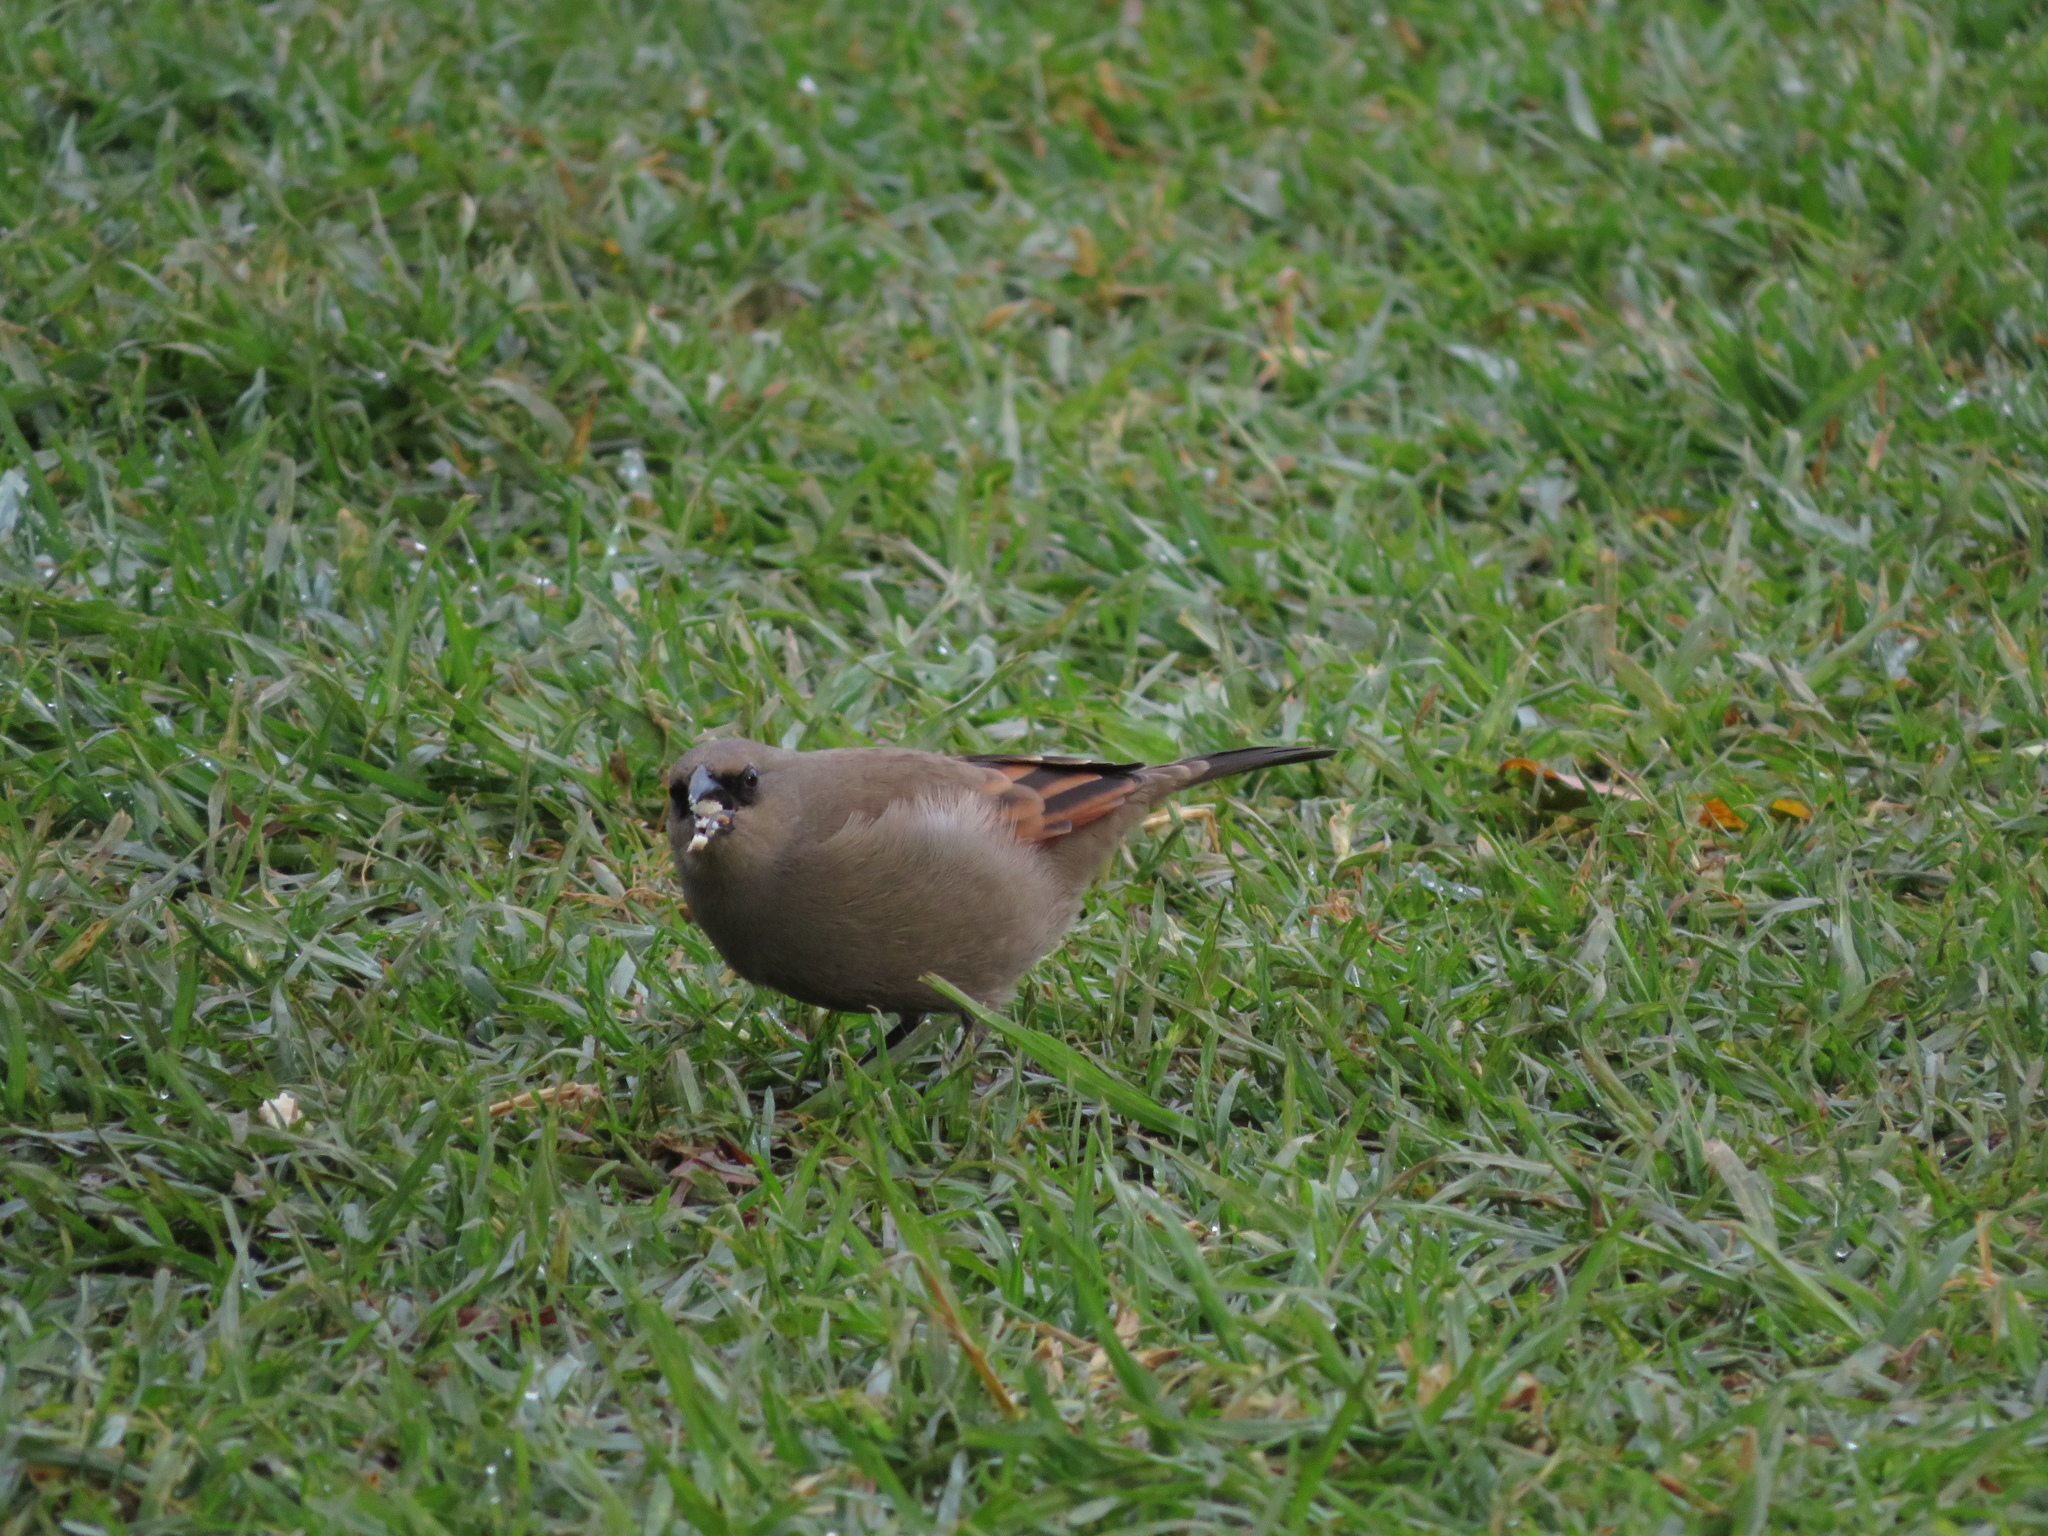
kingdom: Animalia
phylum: Chordata
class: Aves
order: Passeriformes
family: Icteridae
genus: Agelaioides
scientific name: Agelaioides badius
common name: Baywing
